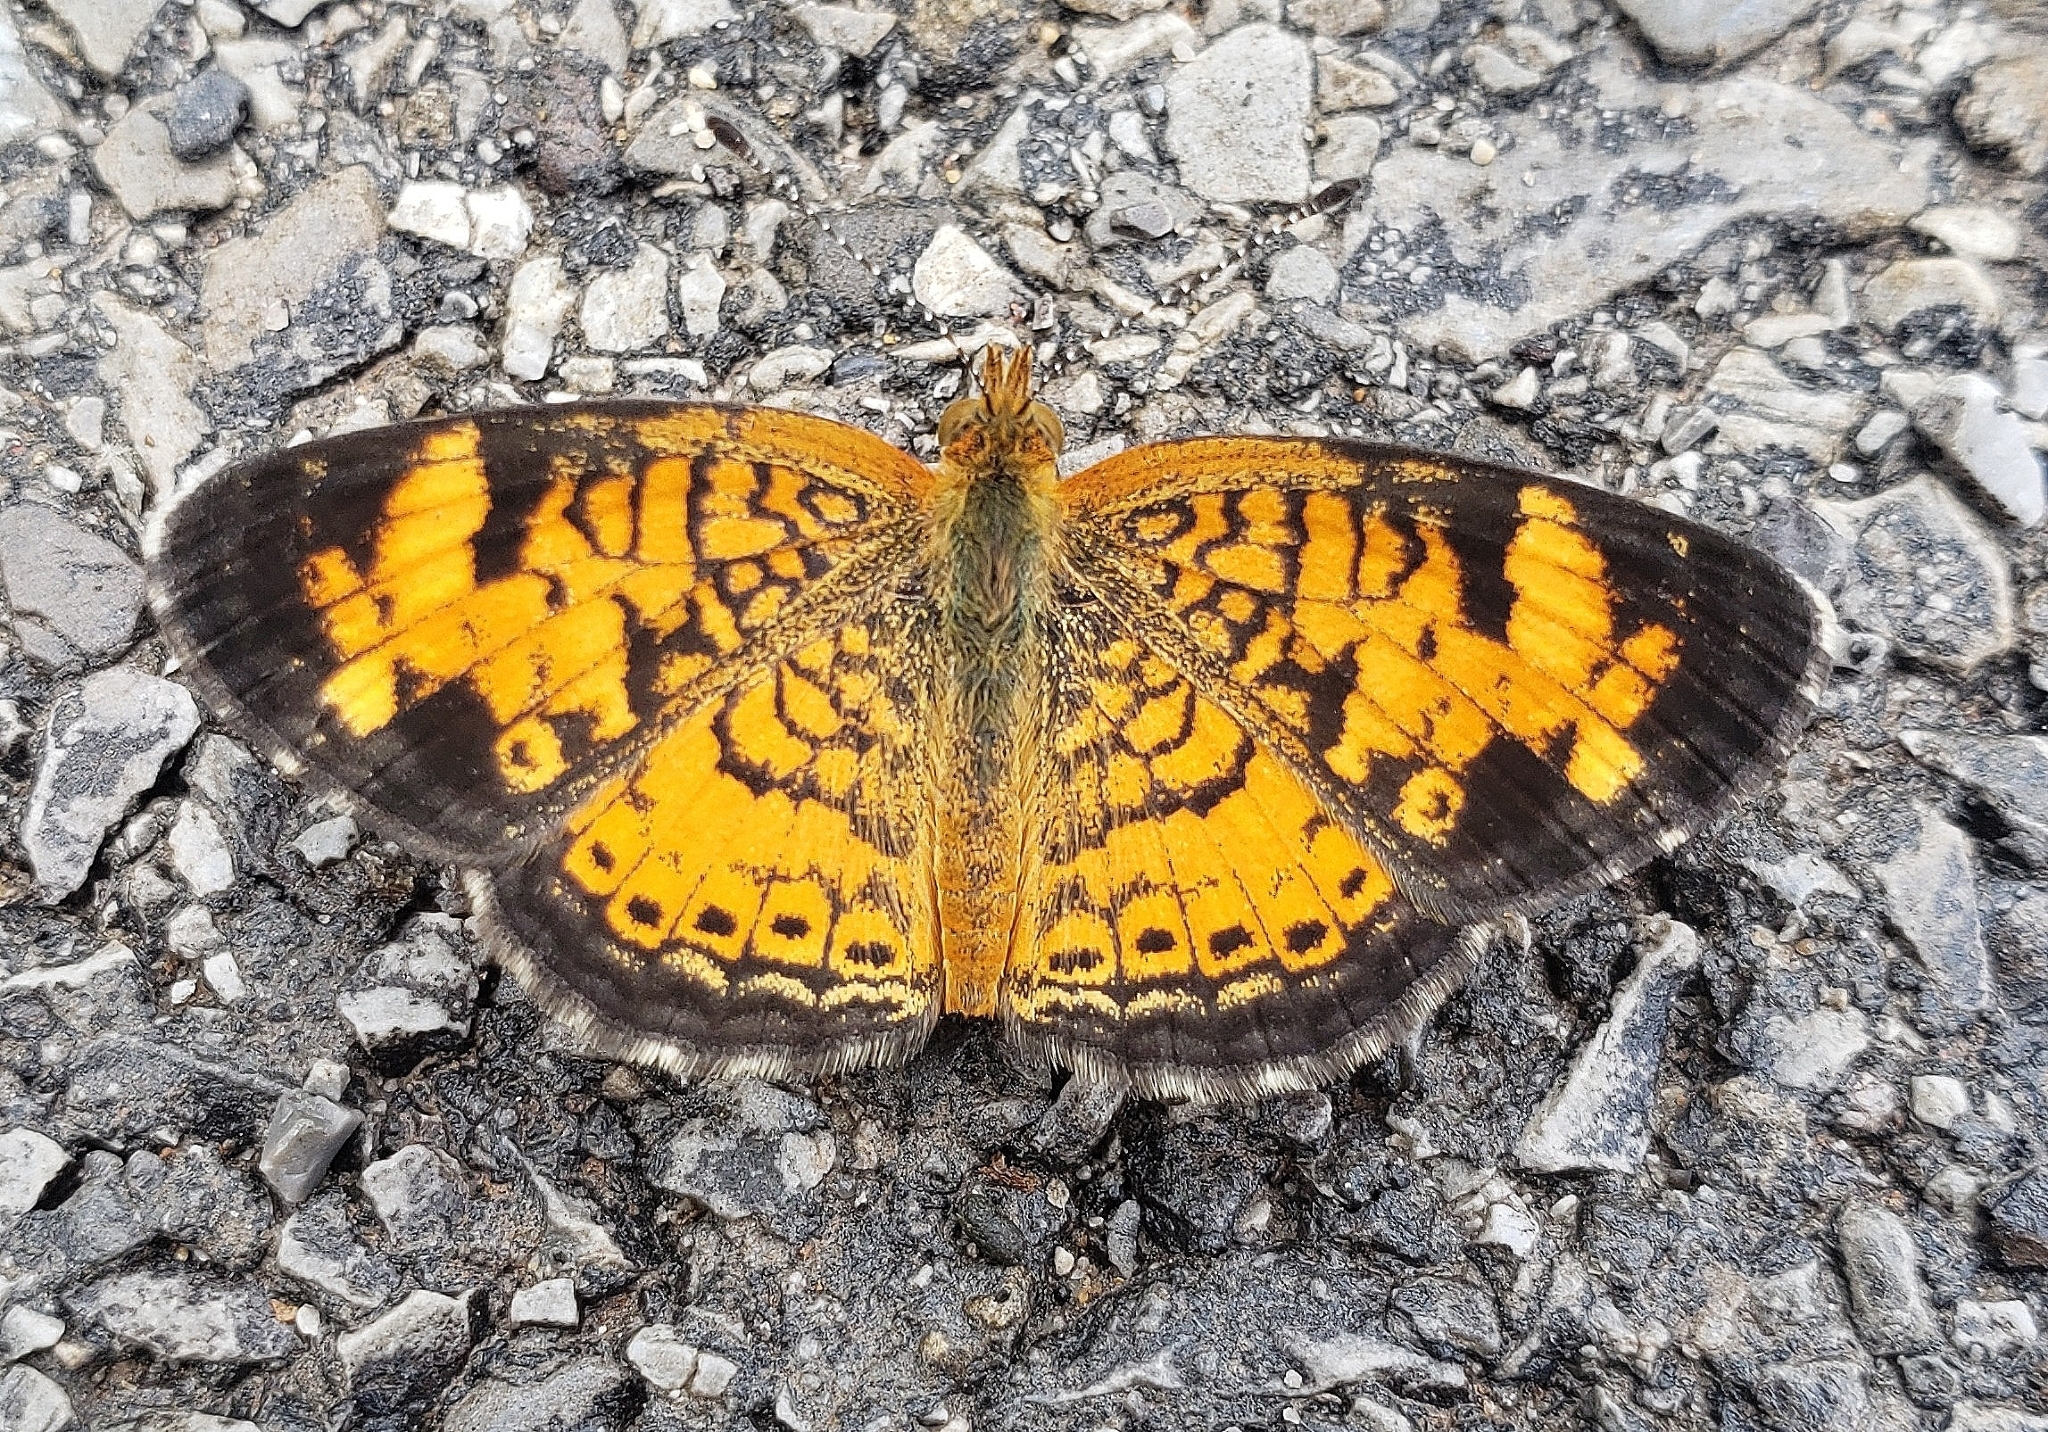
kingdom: Animalia
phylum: Arthropoda
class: Insecta
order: Lepidoptera
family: Nymphalidae
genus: Phyciodes
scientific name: Phyciodes tharos
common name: Pearl crescent
